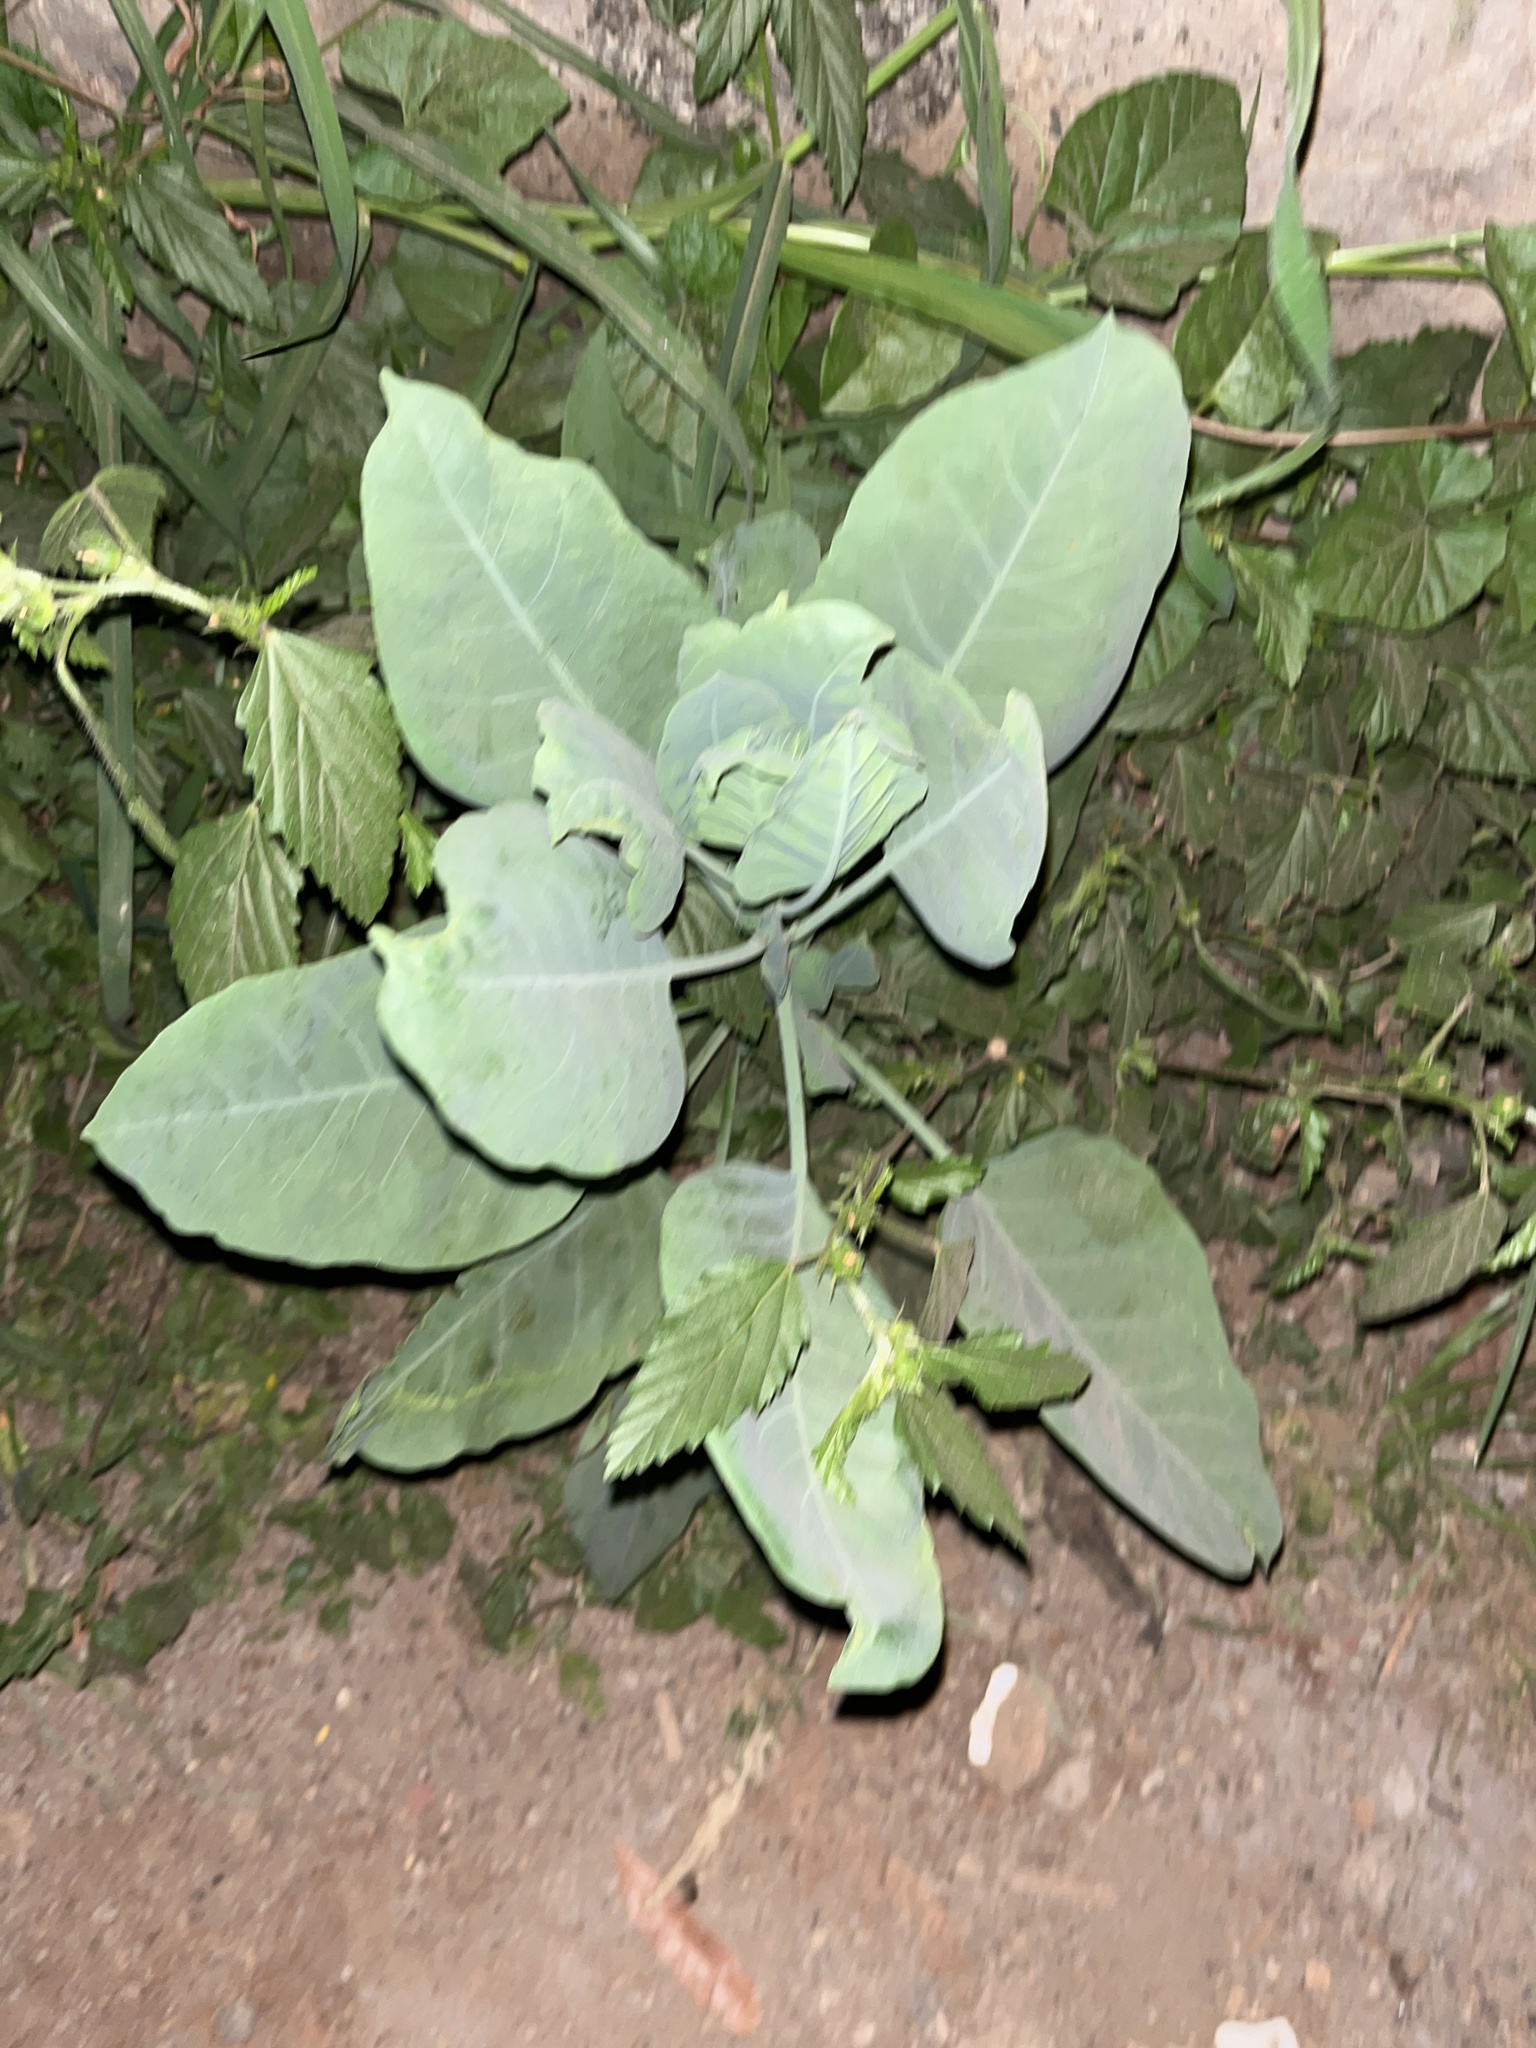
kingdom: Plantae
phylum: Tracheophyta
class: Magnoliopsida
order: Solanales
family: Solanaceae
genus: Nicotiana
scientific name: Nicotiana glauca
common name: Tree tobacco
